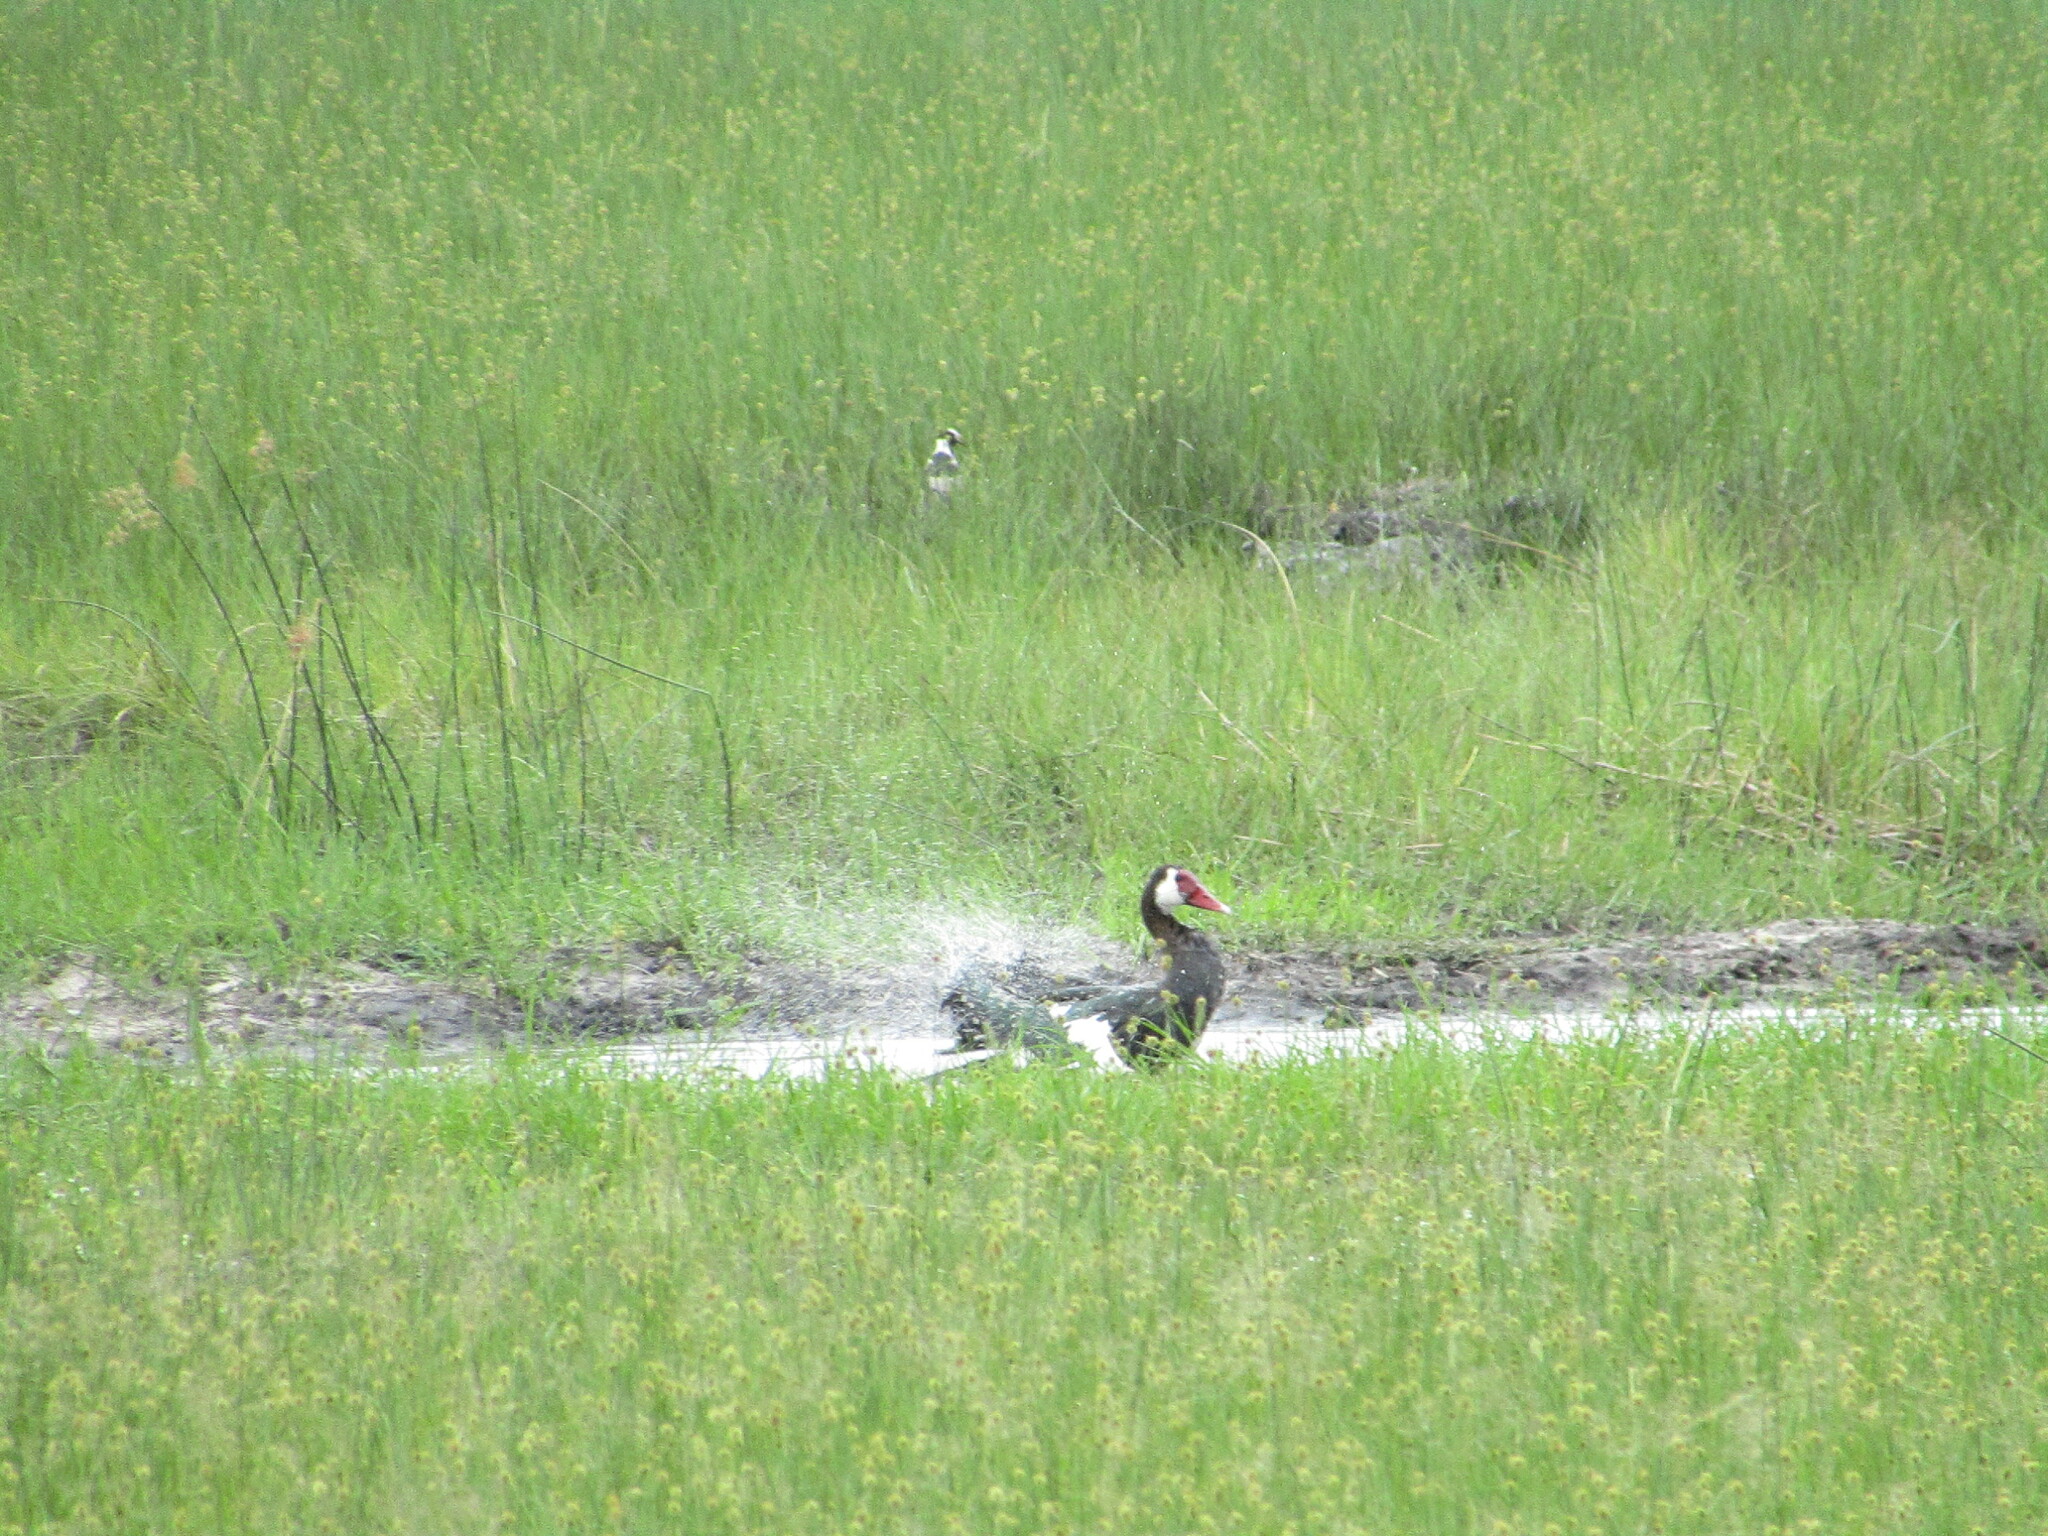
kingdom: Animalia
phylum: Chordata
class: Aves
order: Anseriformes
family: Anatidae
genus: Plectropterus
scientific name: Plectropterus gambensis
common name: Spur-winged goose
